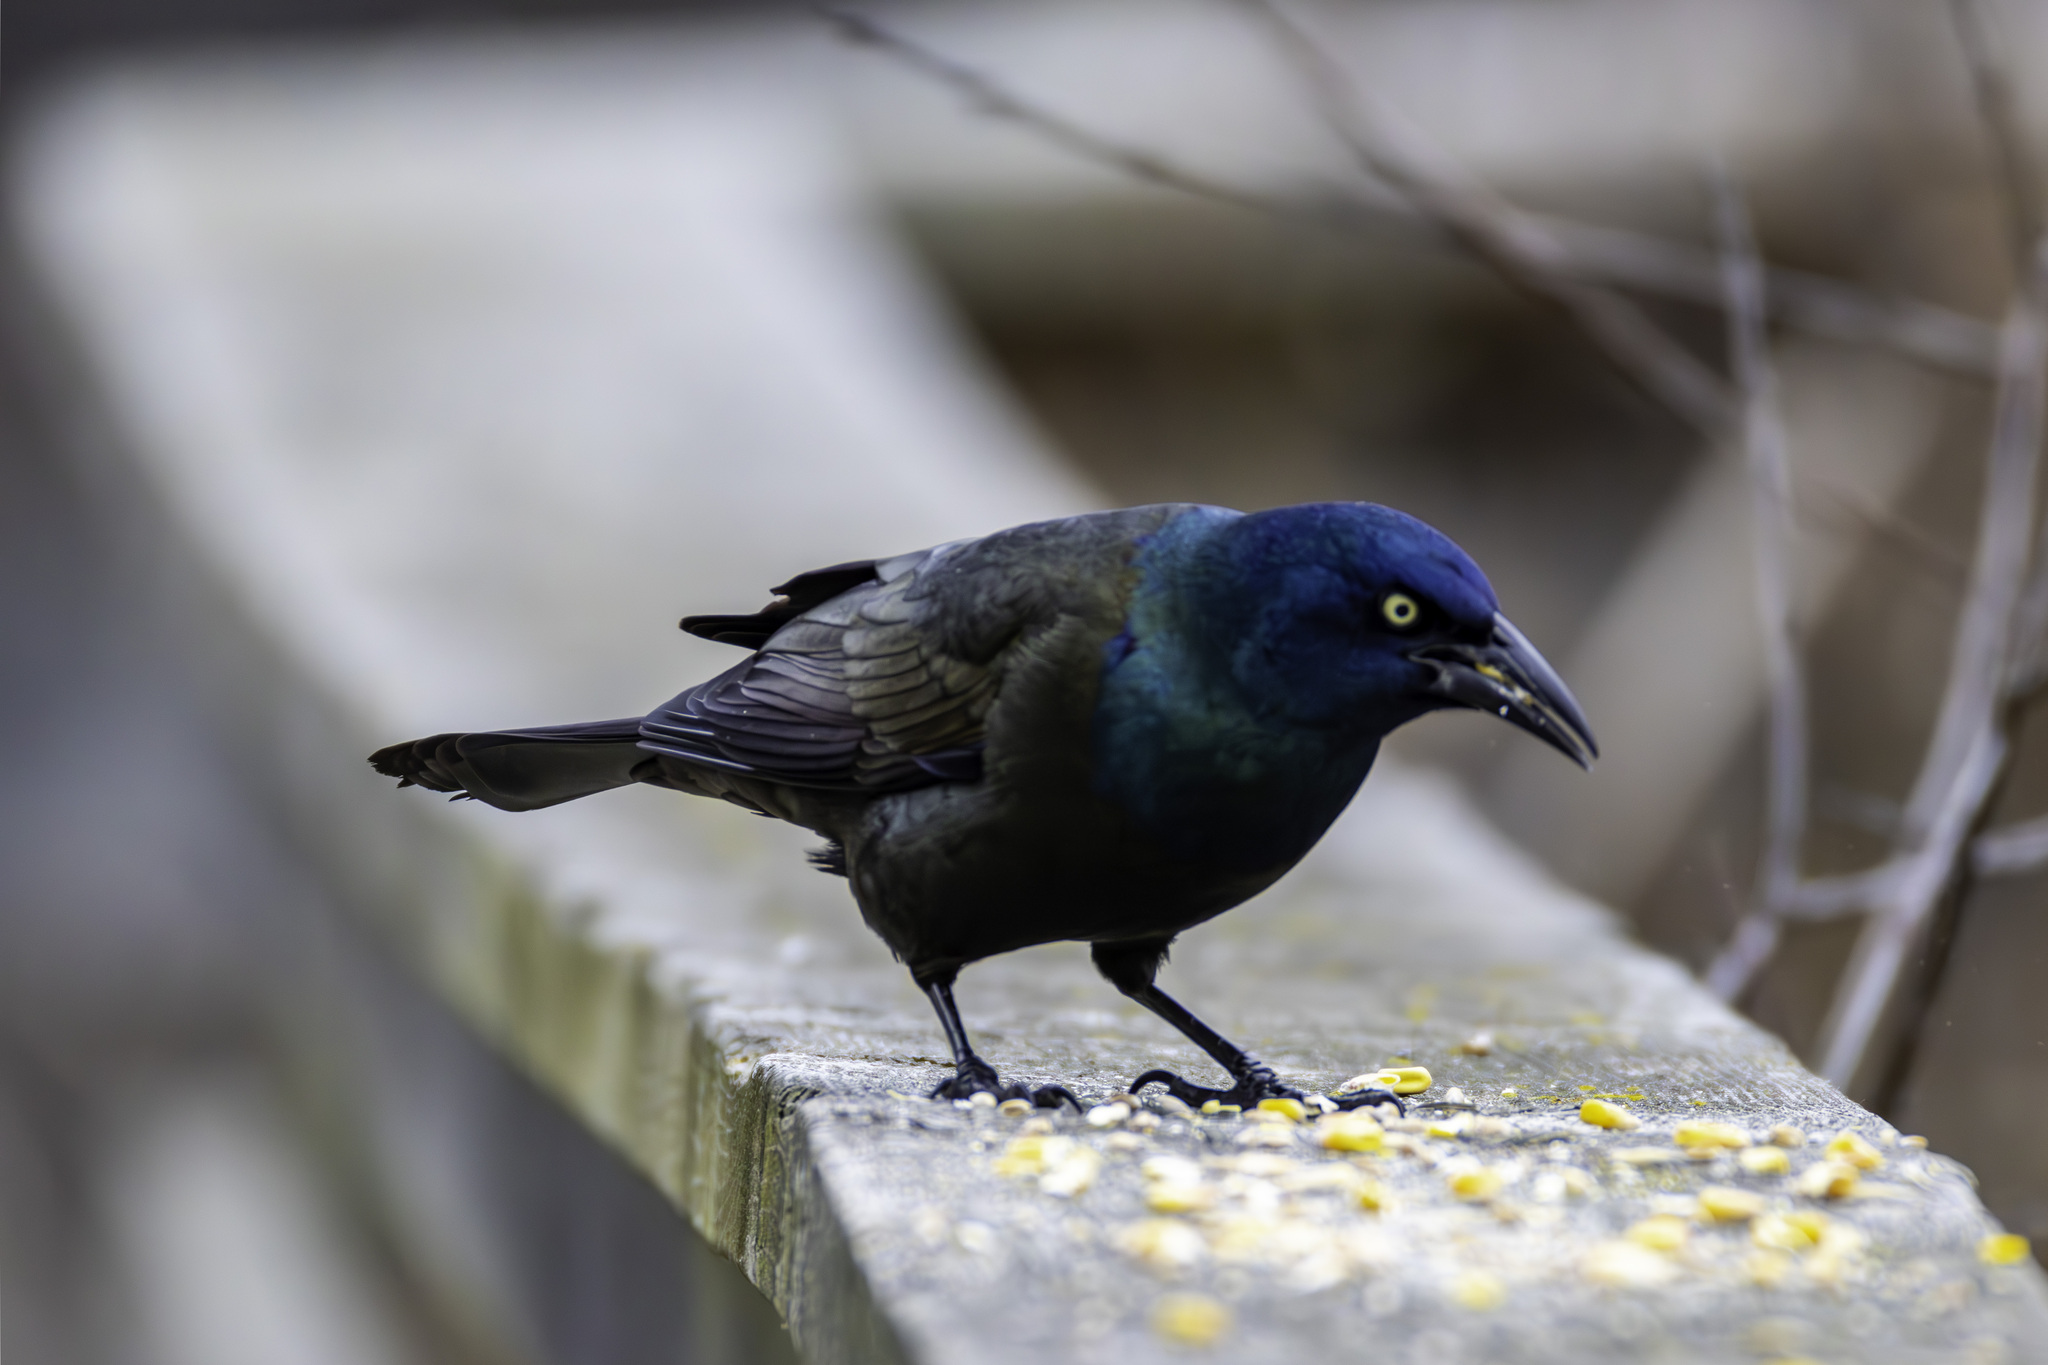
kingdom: Animalia
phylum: Chordata
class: Aves
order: Passeriformes
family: Icteridae
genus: Quiscalus
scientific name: Quiscalus quiscula
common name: Common grackle
